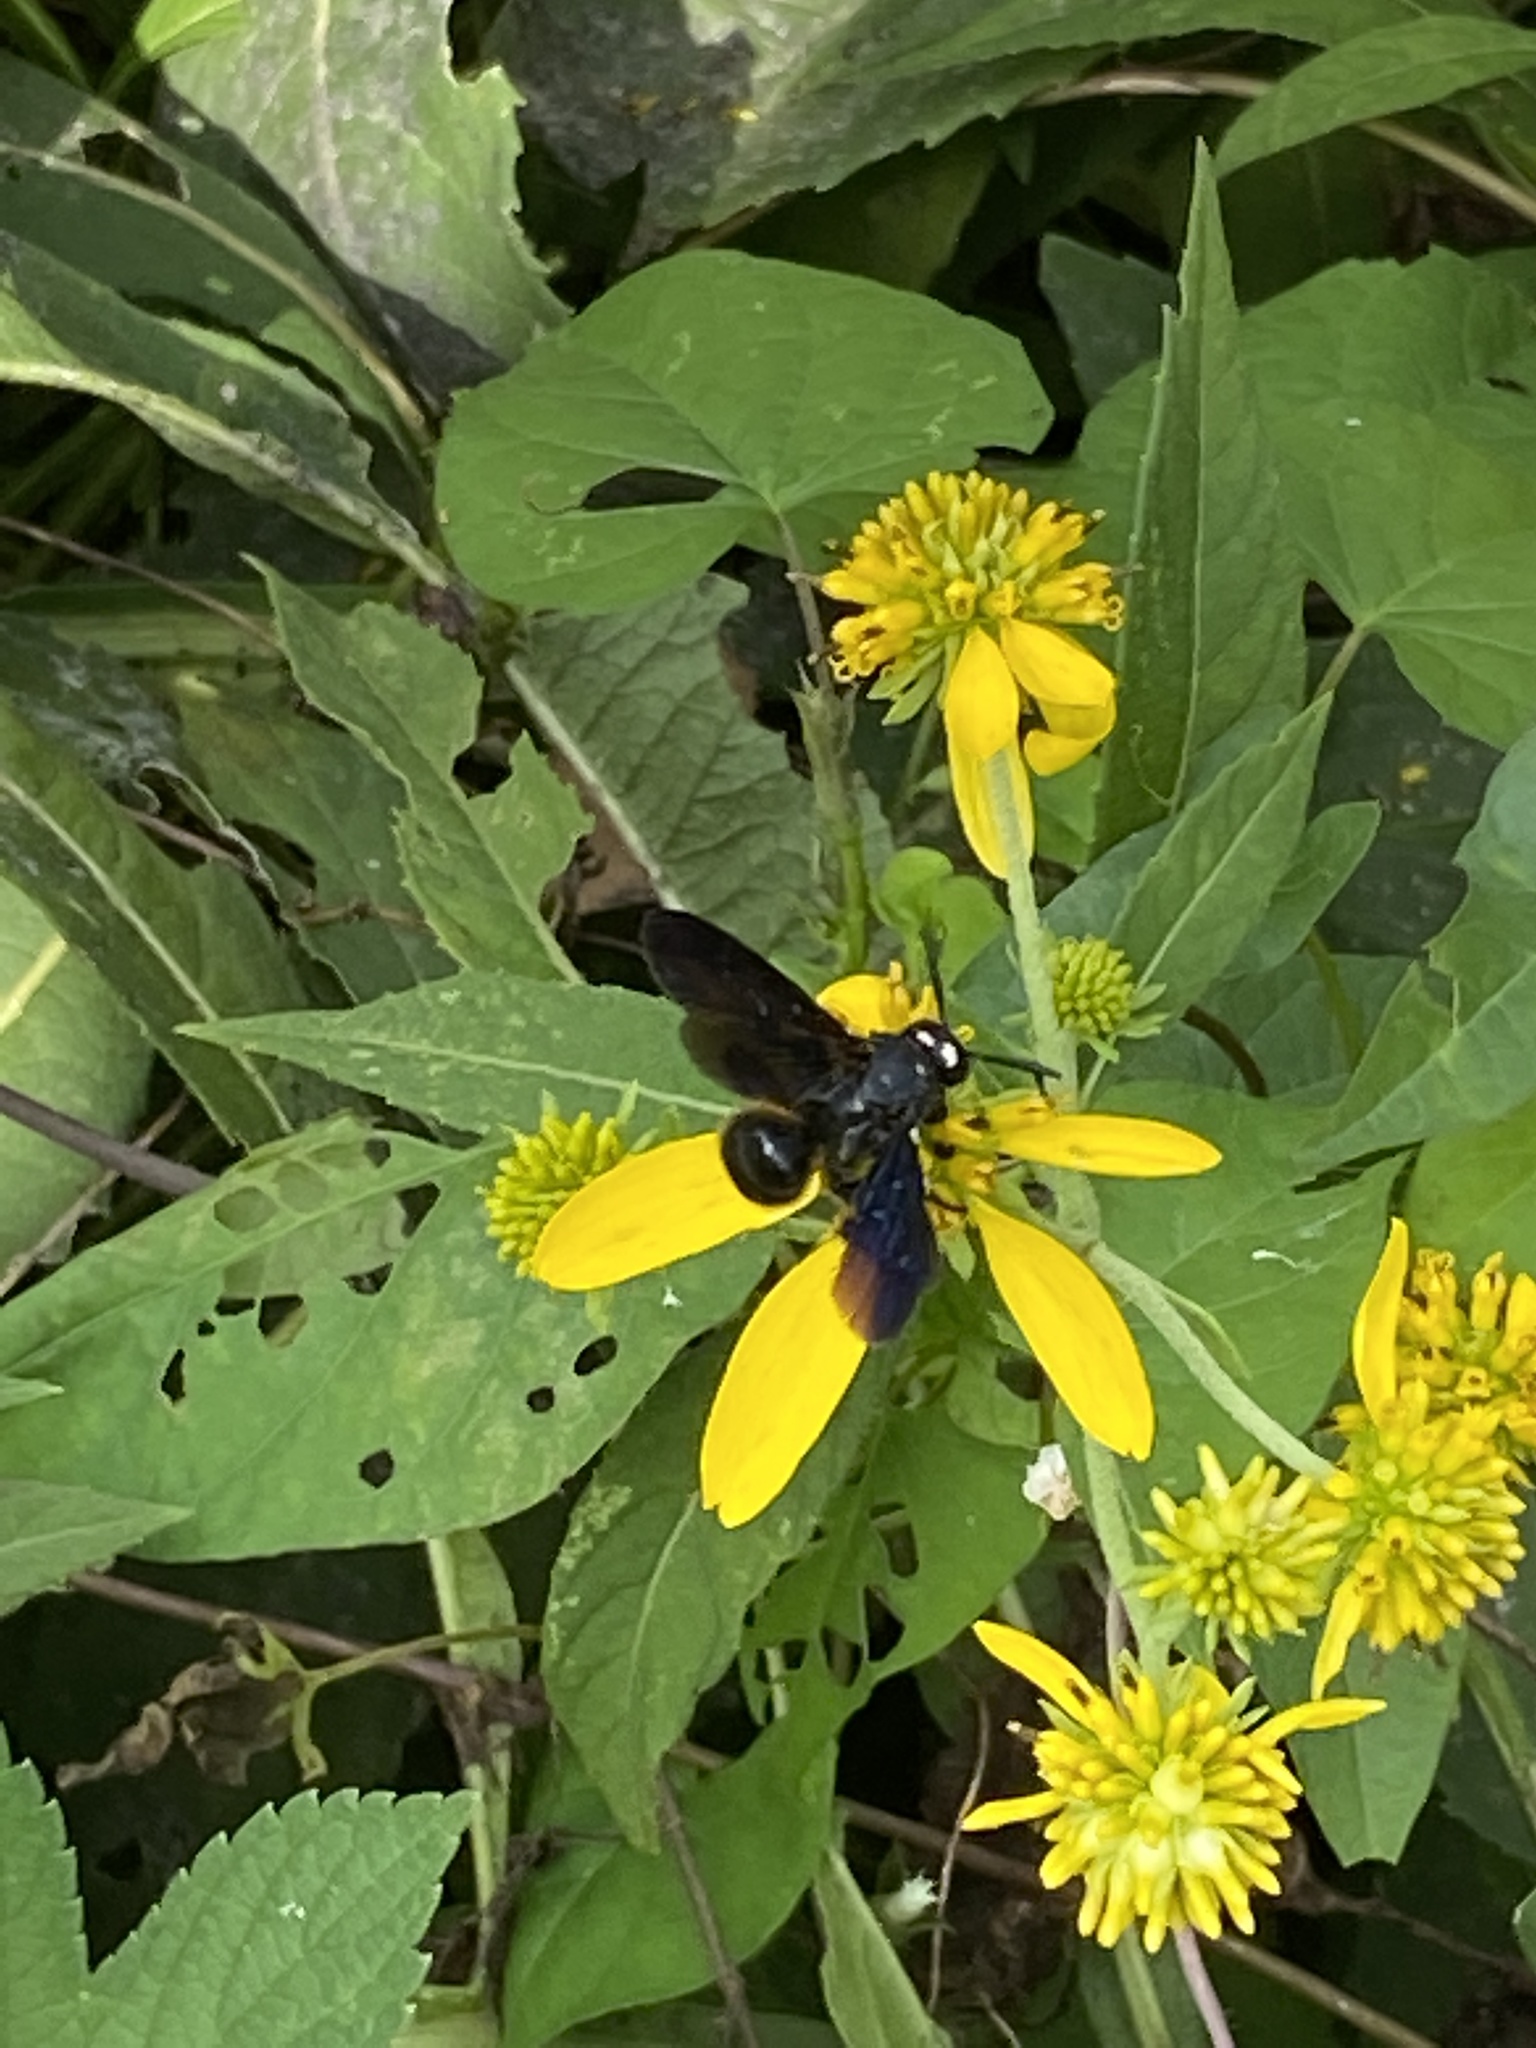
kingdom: Animalia
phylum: Arthropoda
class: Insecta
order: Hymenoptera
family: Scoliidae
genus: Scolia
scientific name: Scolia dubia
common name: Blue-winged scoliid wasp
